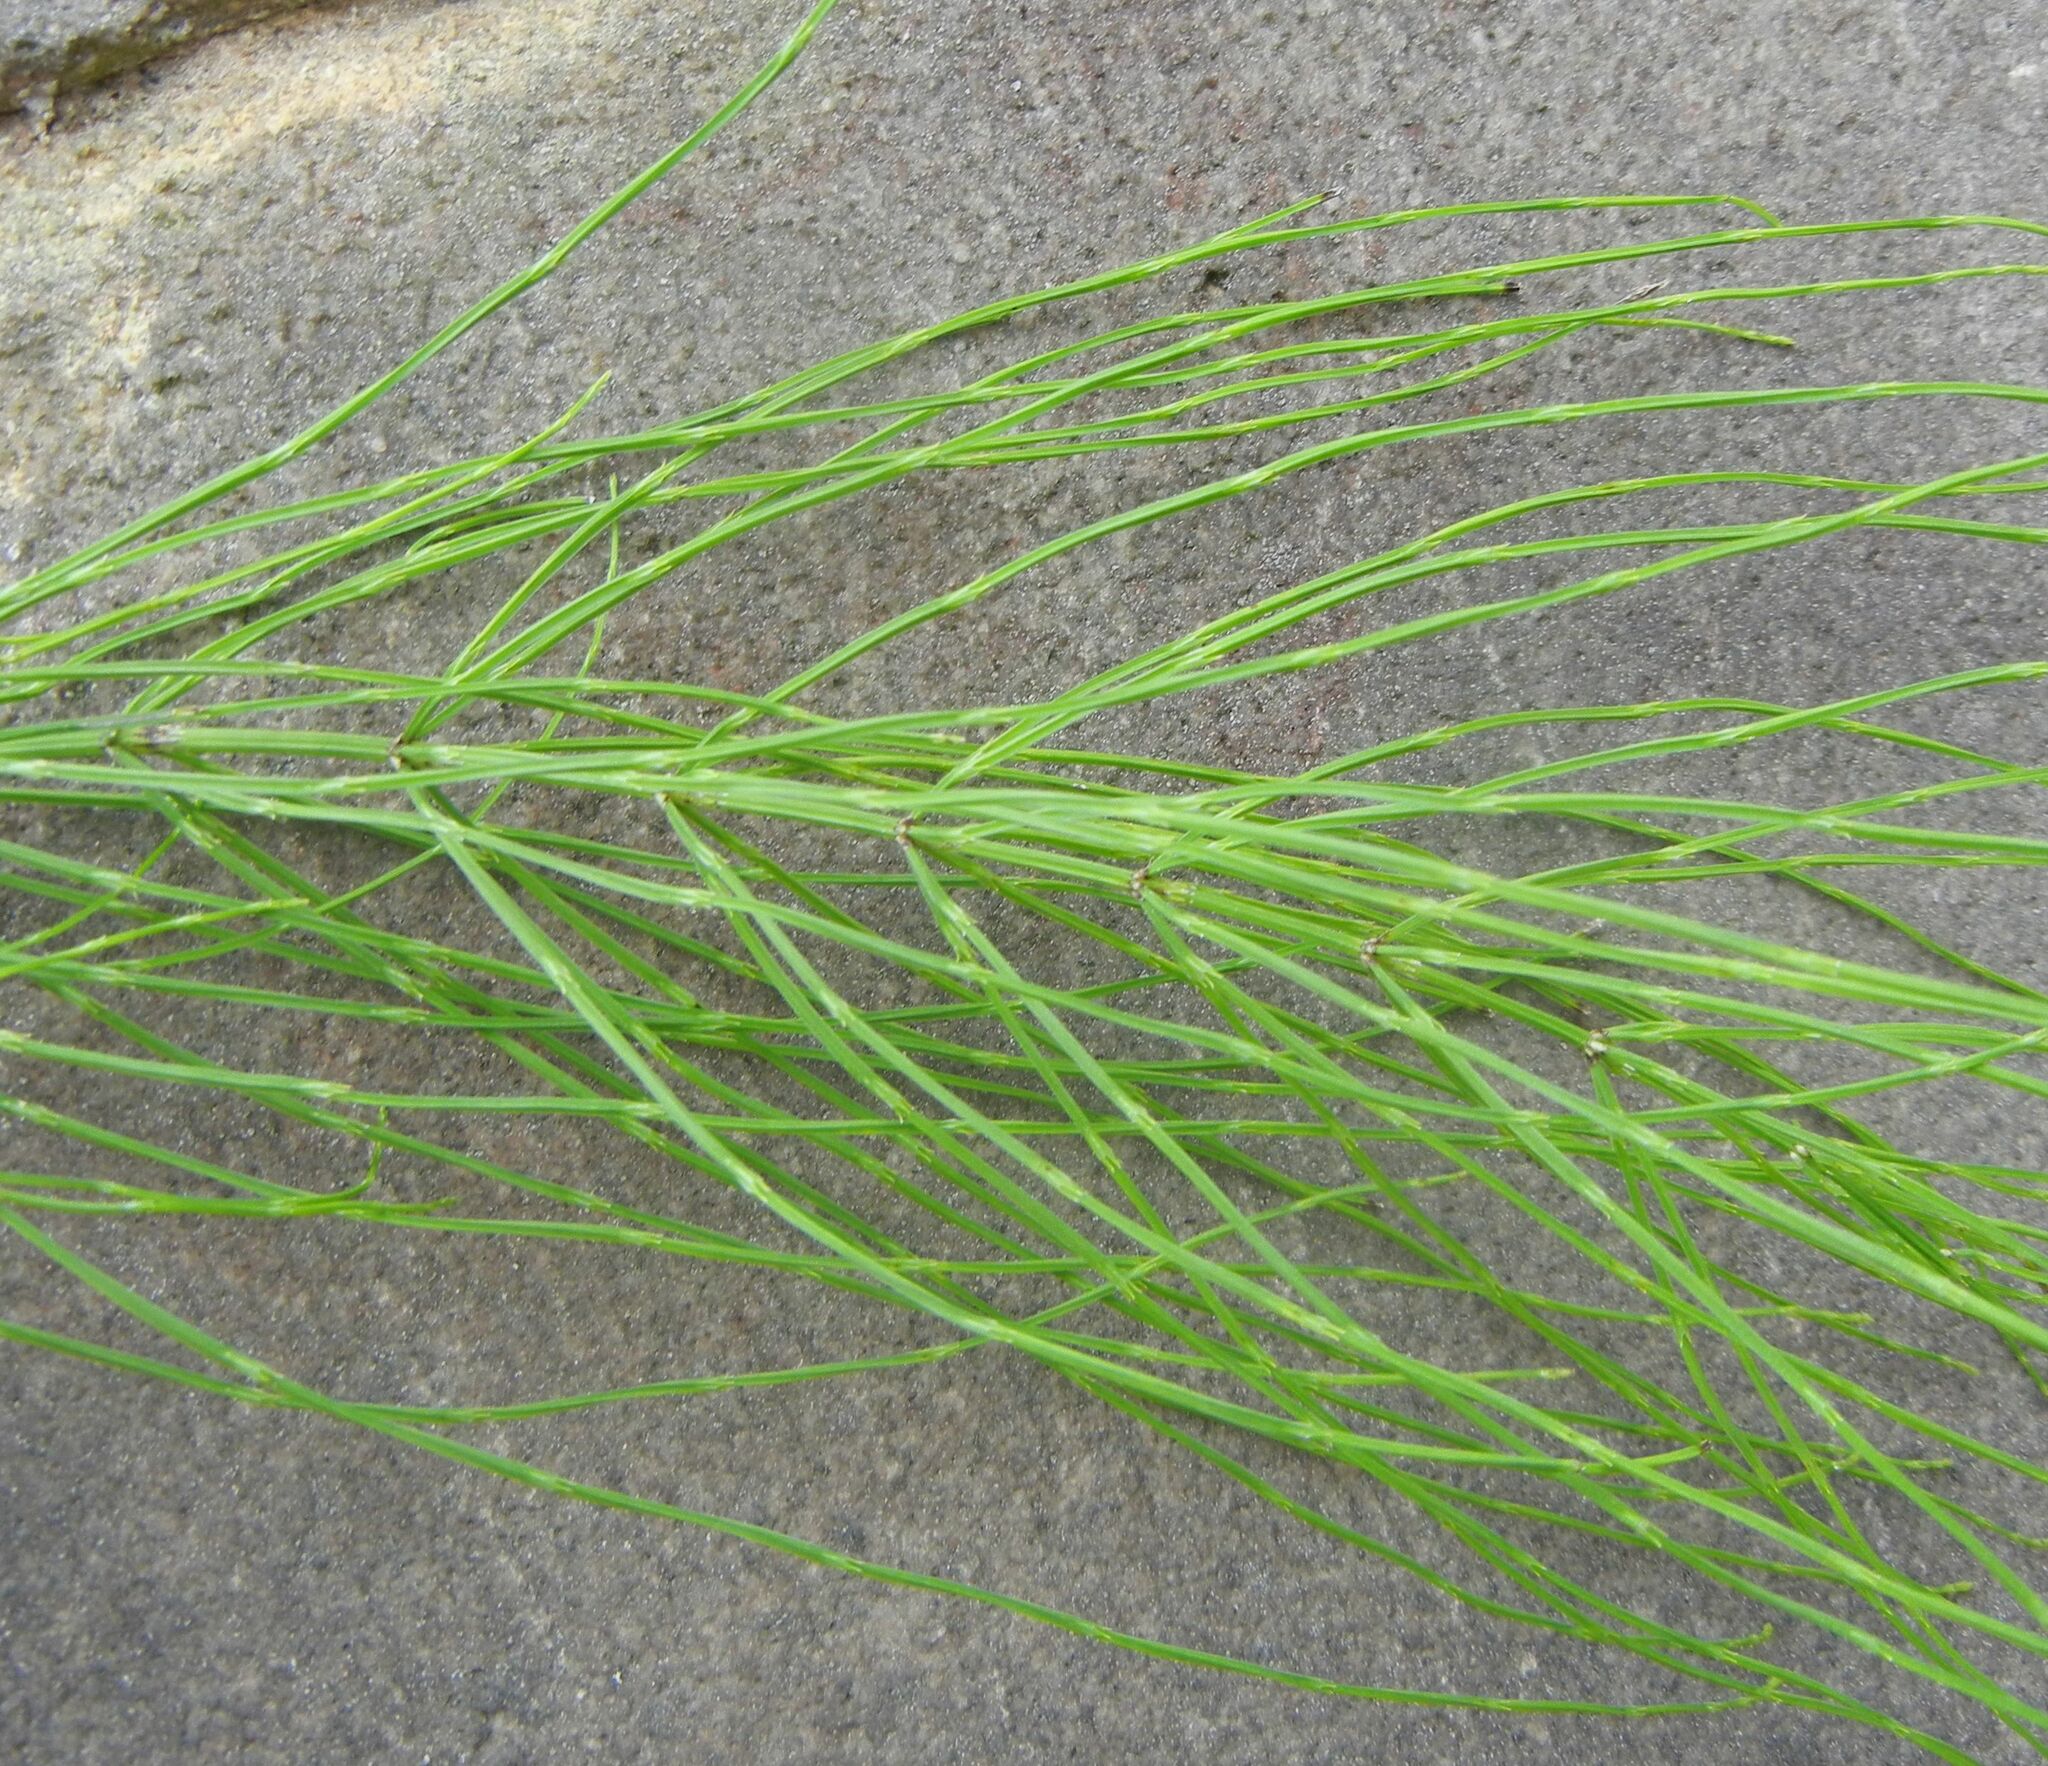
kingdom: Plantae
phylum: Tracheophyta
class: Polypodiopsida
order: Equisetales
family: Equisetaceae
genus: Equisetum
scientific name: Equisetum arvense
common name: Field horsetail
